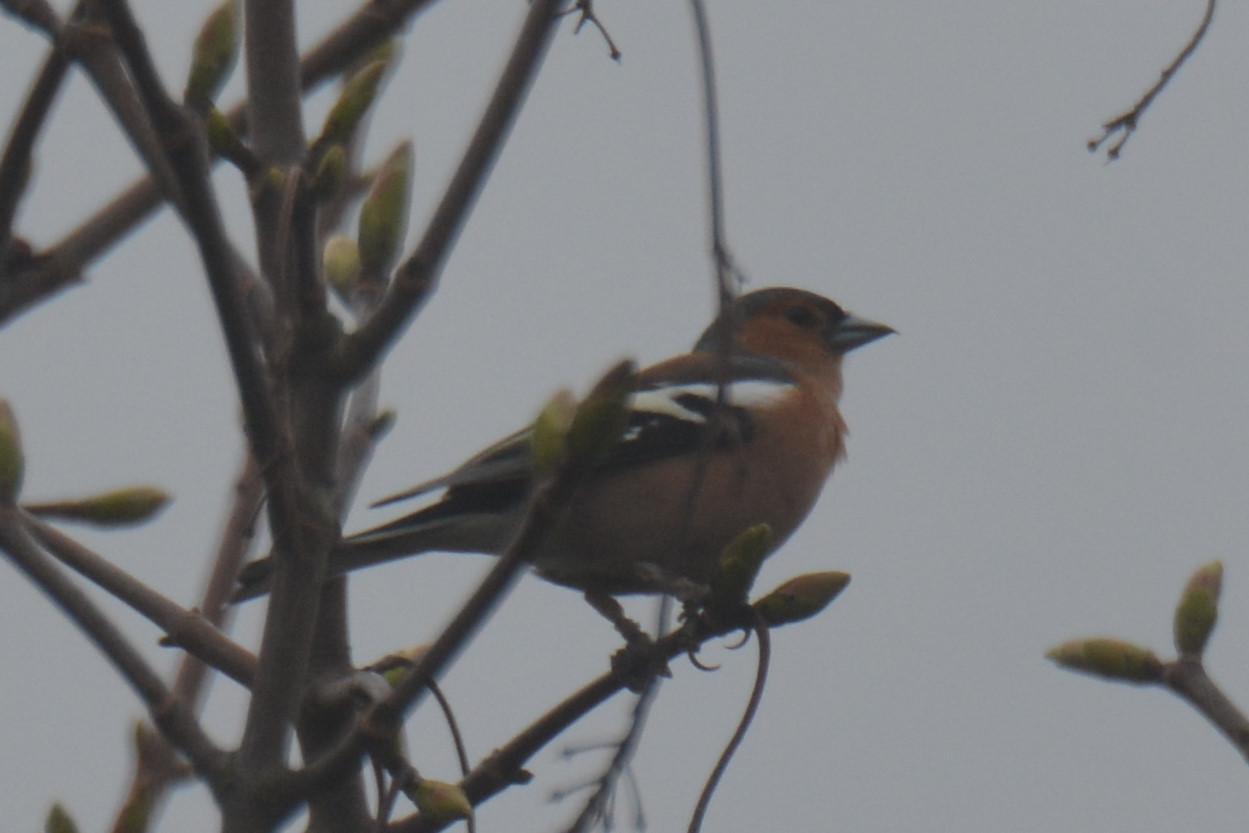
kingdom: Animalia
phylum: Chordata
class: Aves
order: Passeriformes
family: Fringillidae
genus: Fringilla
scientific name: Fringilla coelebs
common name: Common chaffinch
